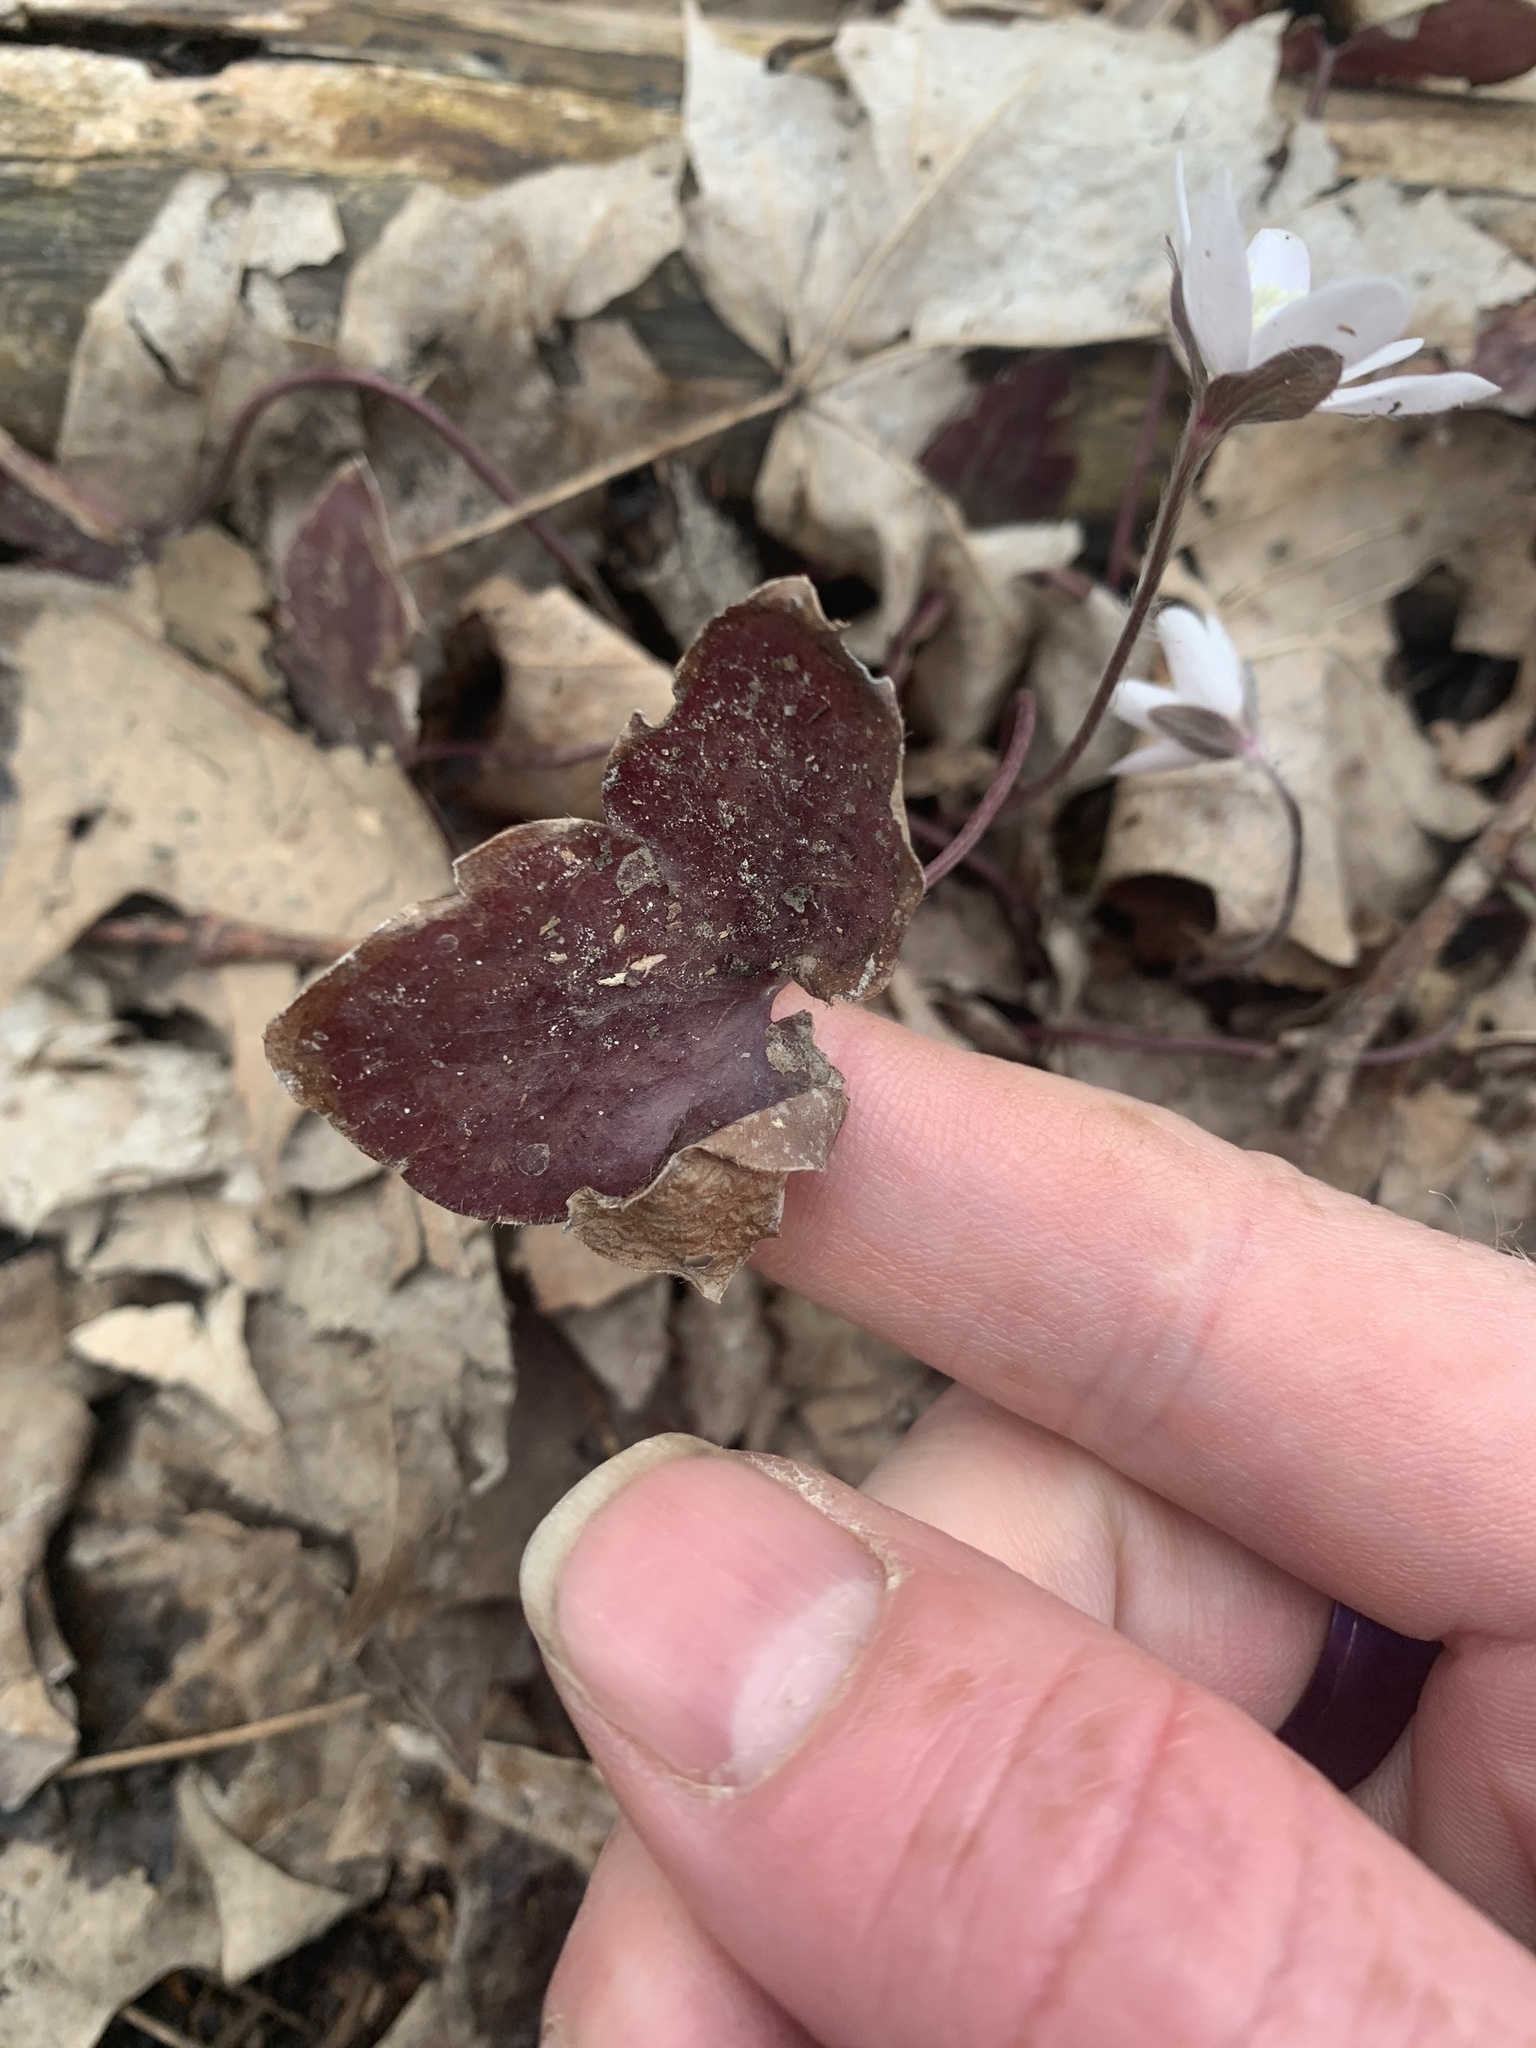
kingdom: Plantae
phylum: Tracheophyta
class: Magnoliopsida
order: Ranunculales
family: Ranunculaceae
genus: Hepatica
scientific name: Hepatica acutiloba
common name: Sharp-lobed hepatica
